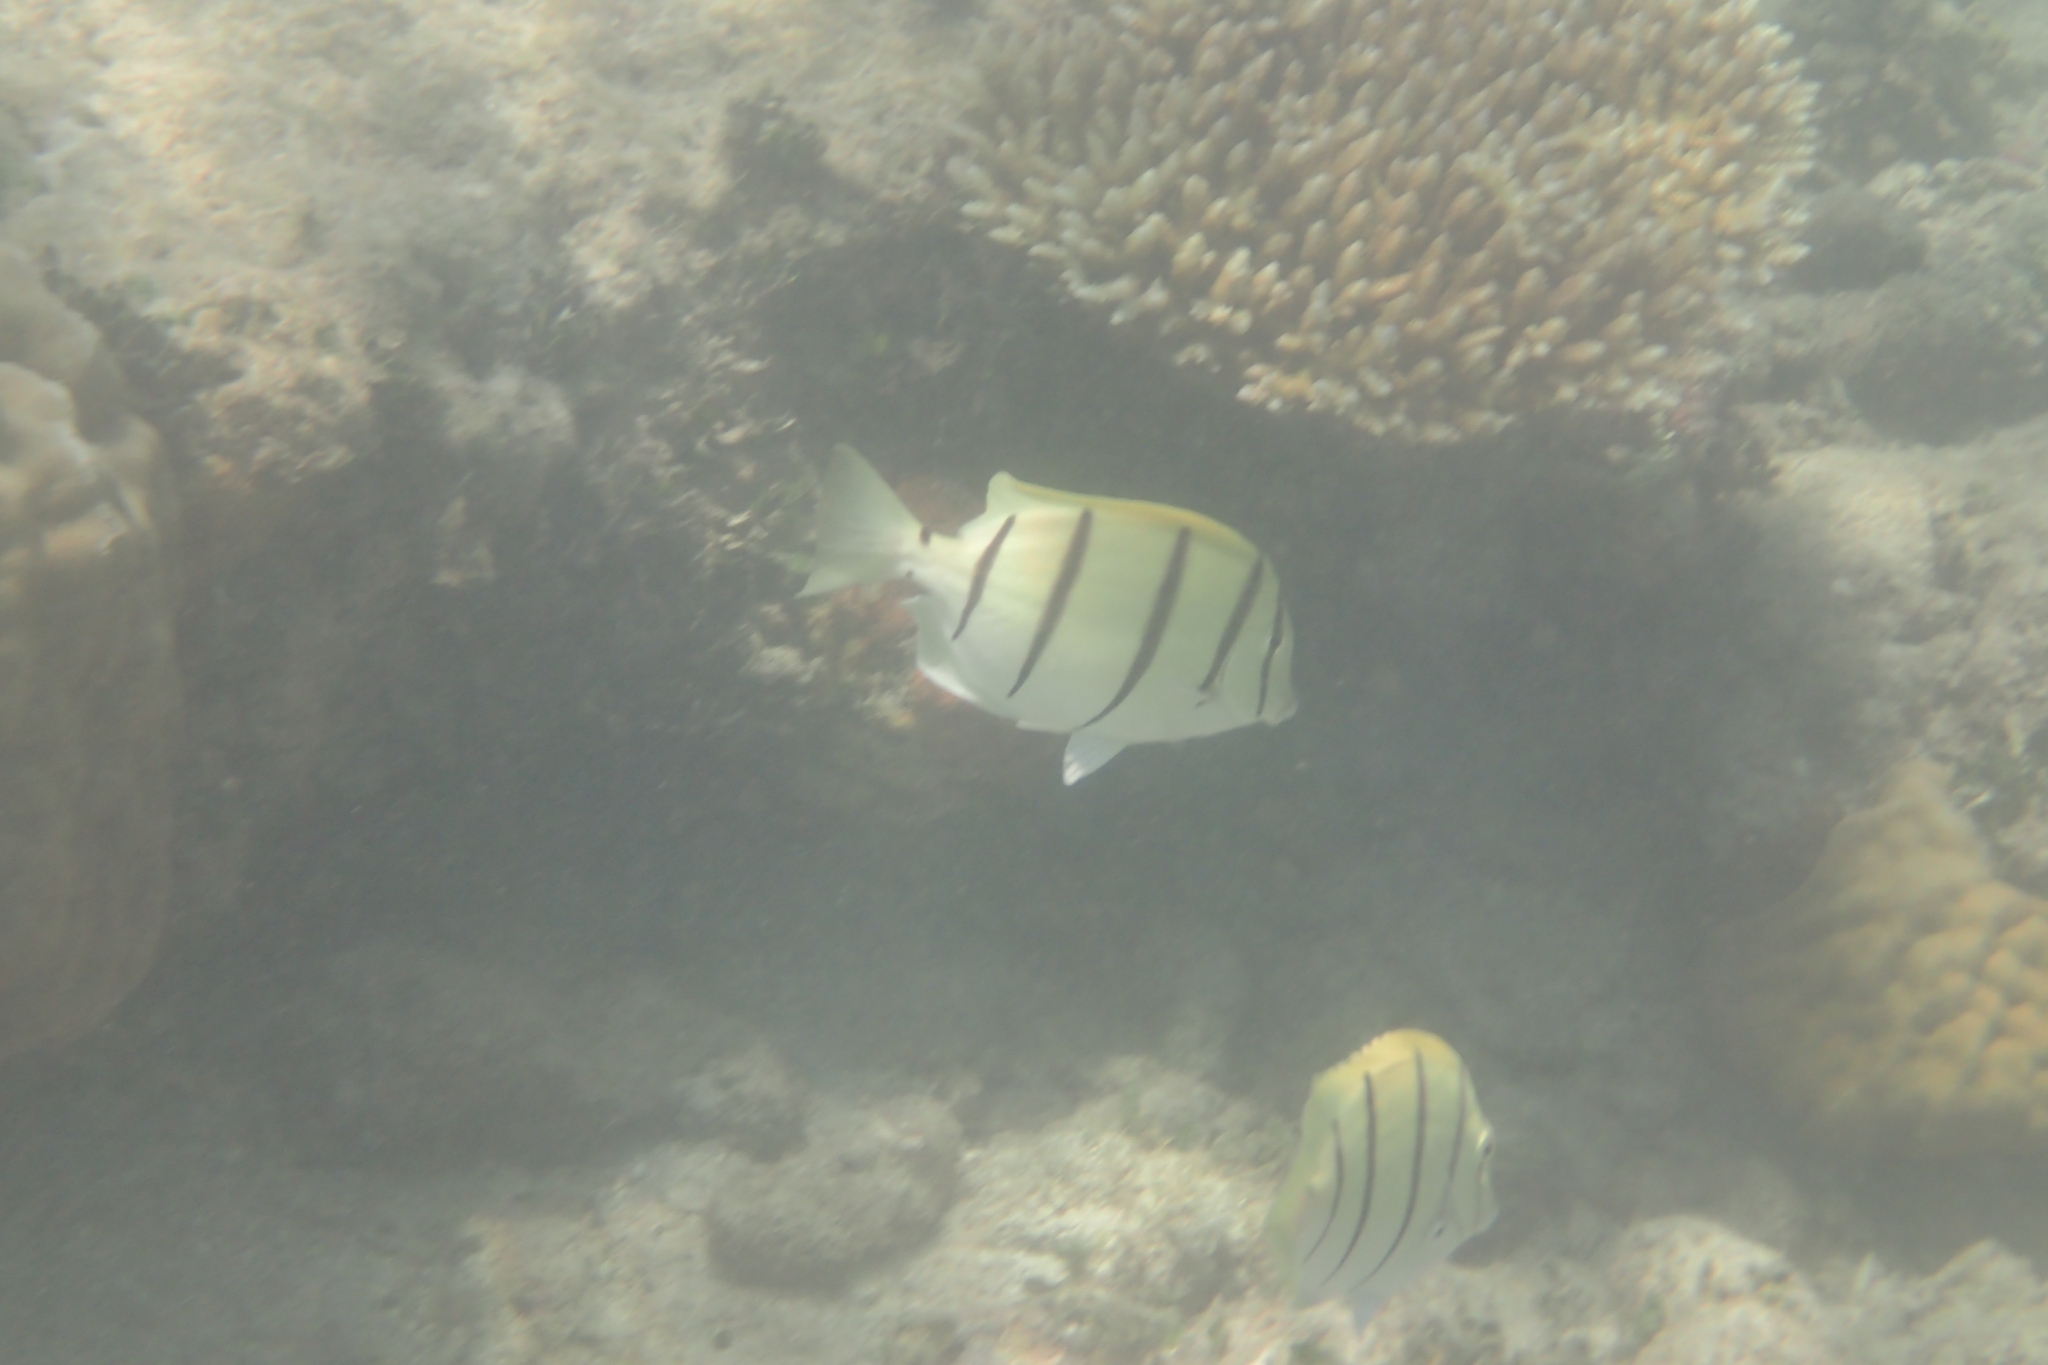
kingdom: Animalia
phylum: Chordata
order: Perciformes
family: Acanthuridae
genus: Acanthurus
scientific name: Acanthurus triostegus
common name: Convict surgeonfish
